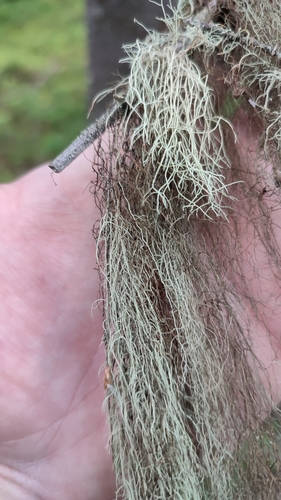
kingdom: Fungi
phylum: Ascomycota
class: Lecanoromycetes
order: Lecanorales
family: Parmeliaceae
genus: Bryoria
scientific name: Bryoria
